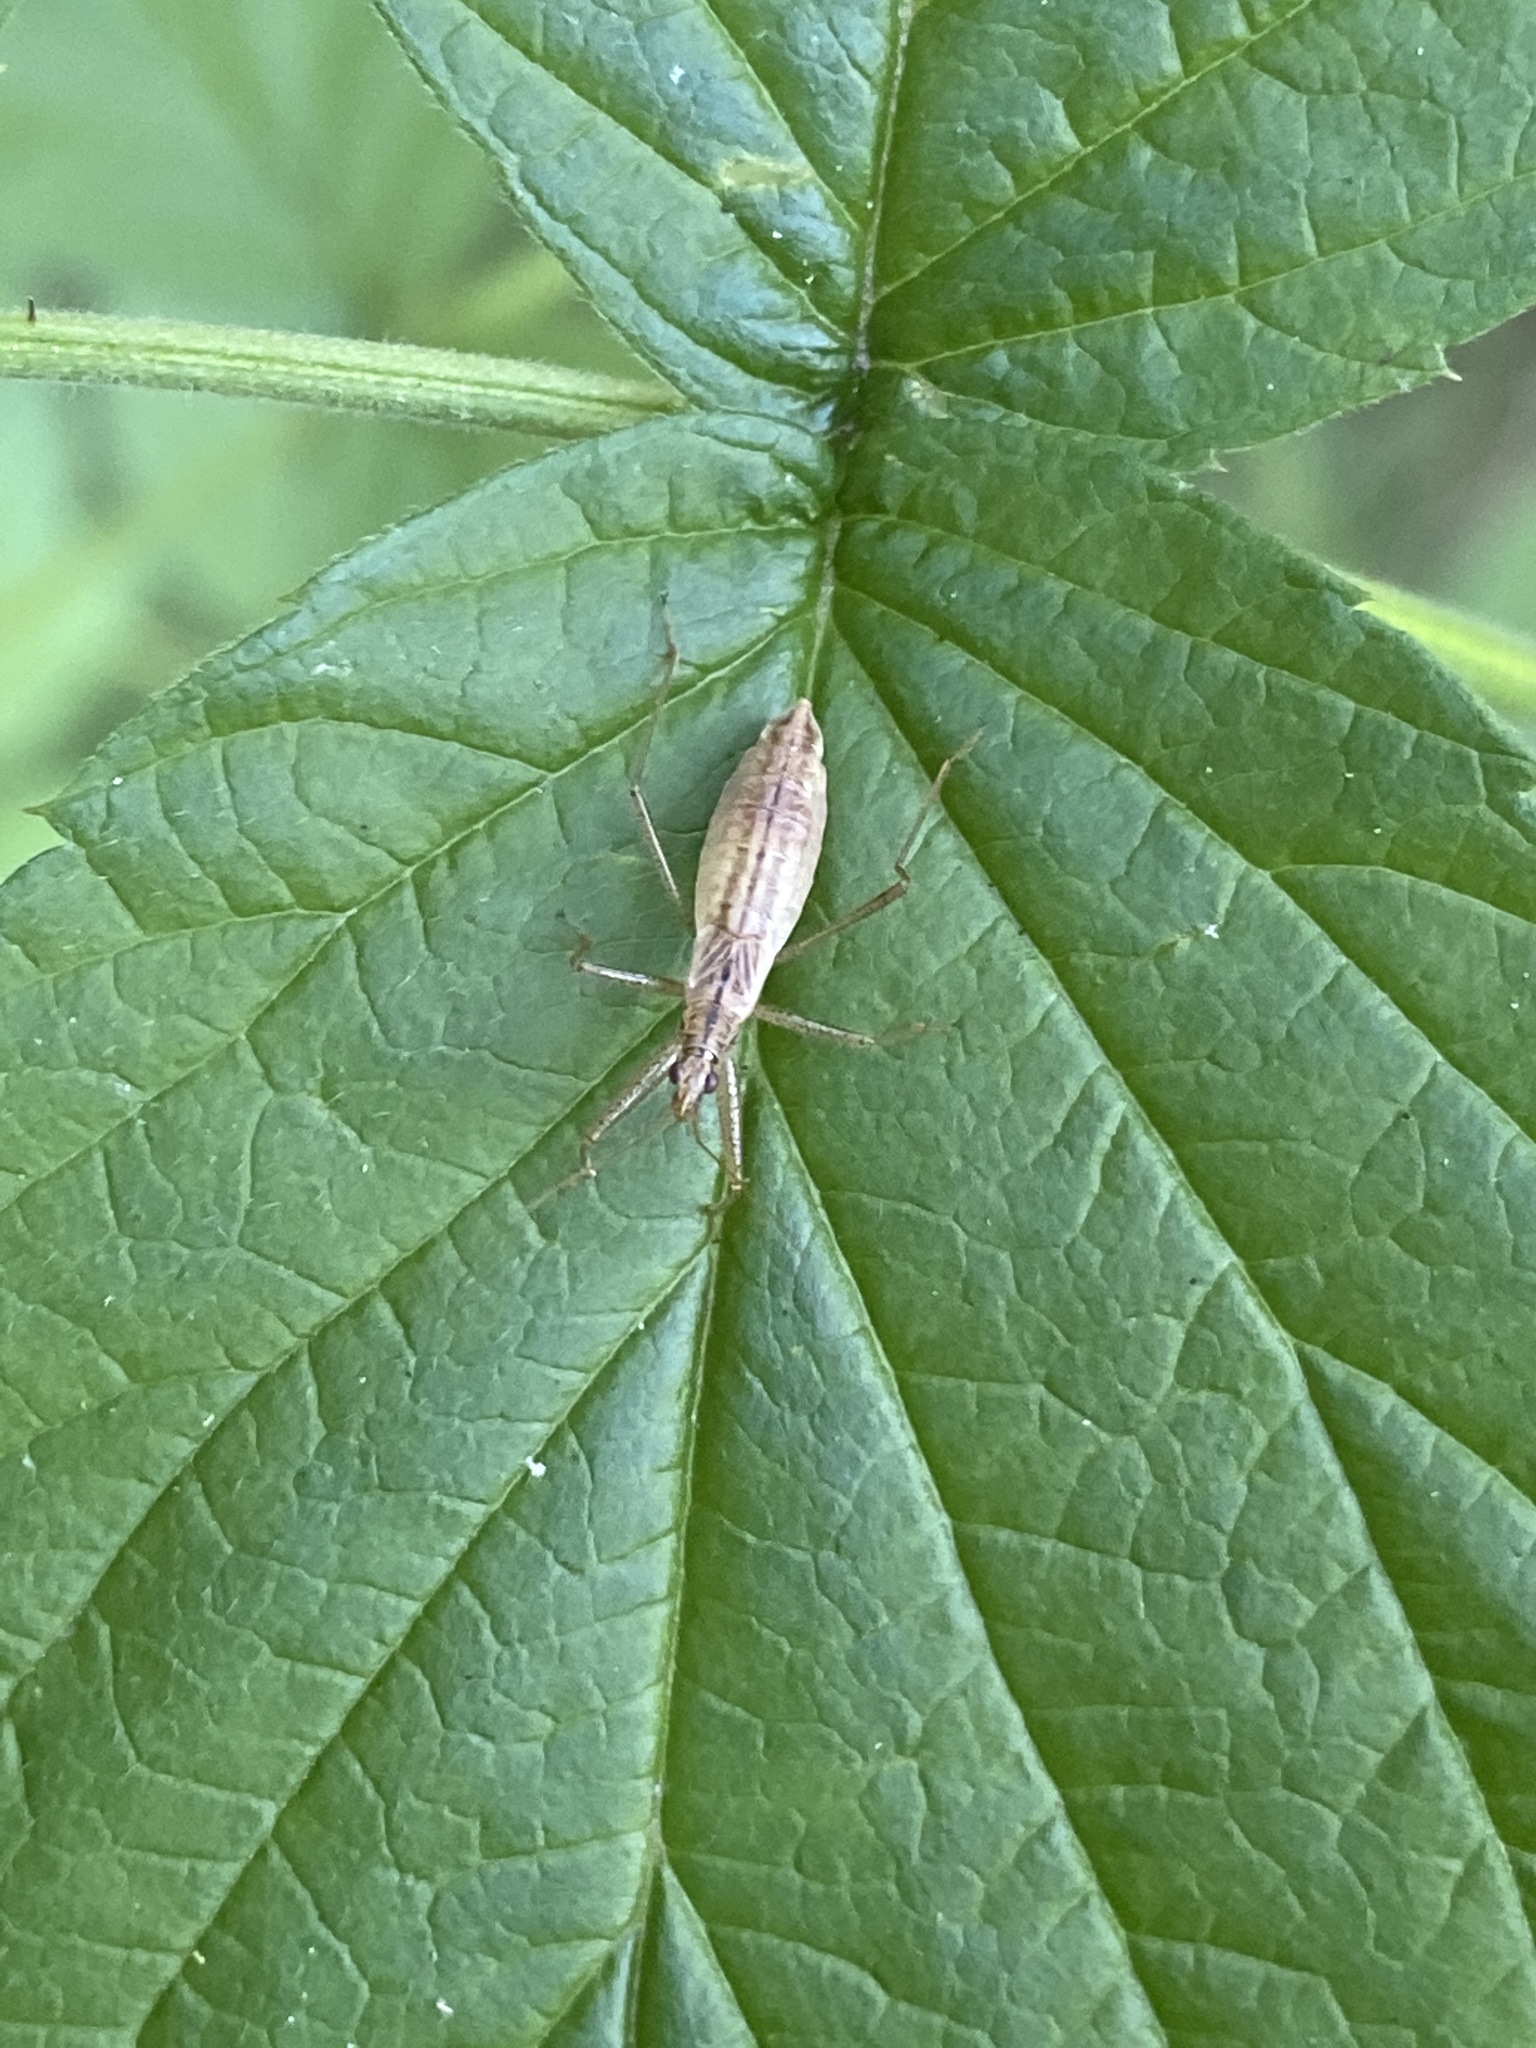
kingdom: Animalia
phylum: Arthropoda
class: Insecta
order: Hemiptera
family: Nabidae
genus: Nabis
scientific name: Nabis limbatus
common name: Marsh damselbug
